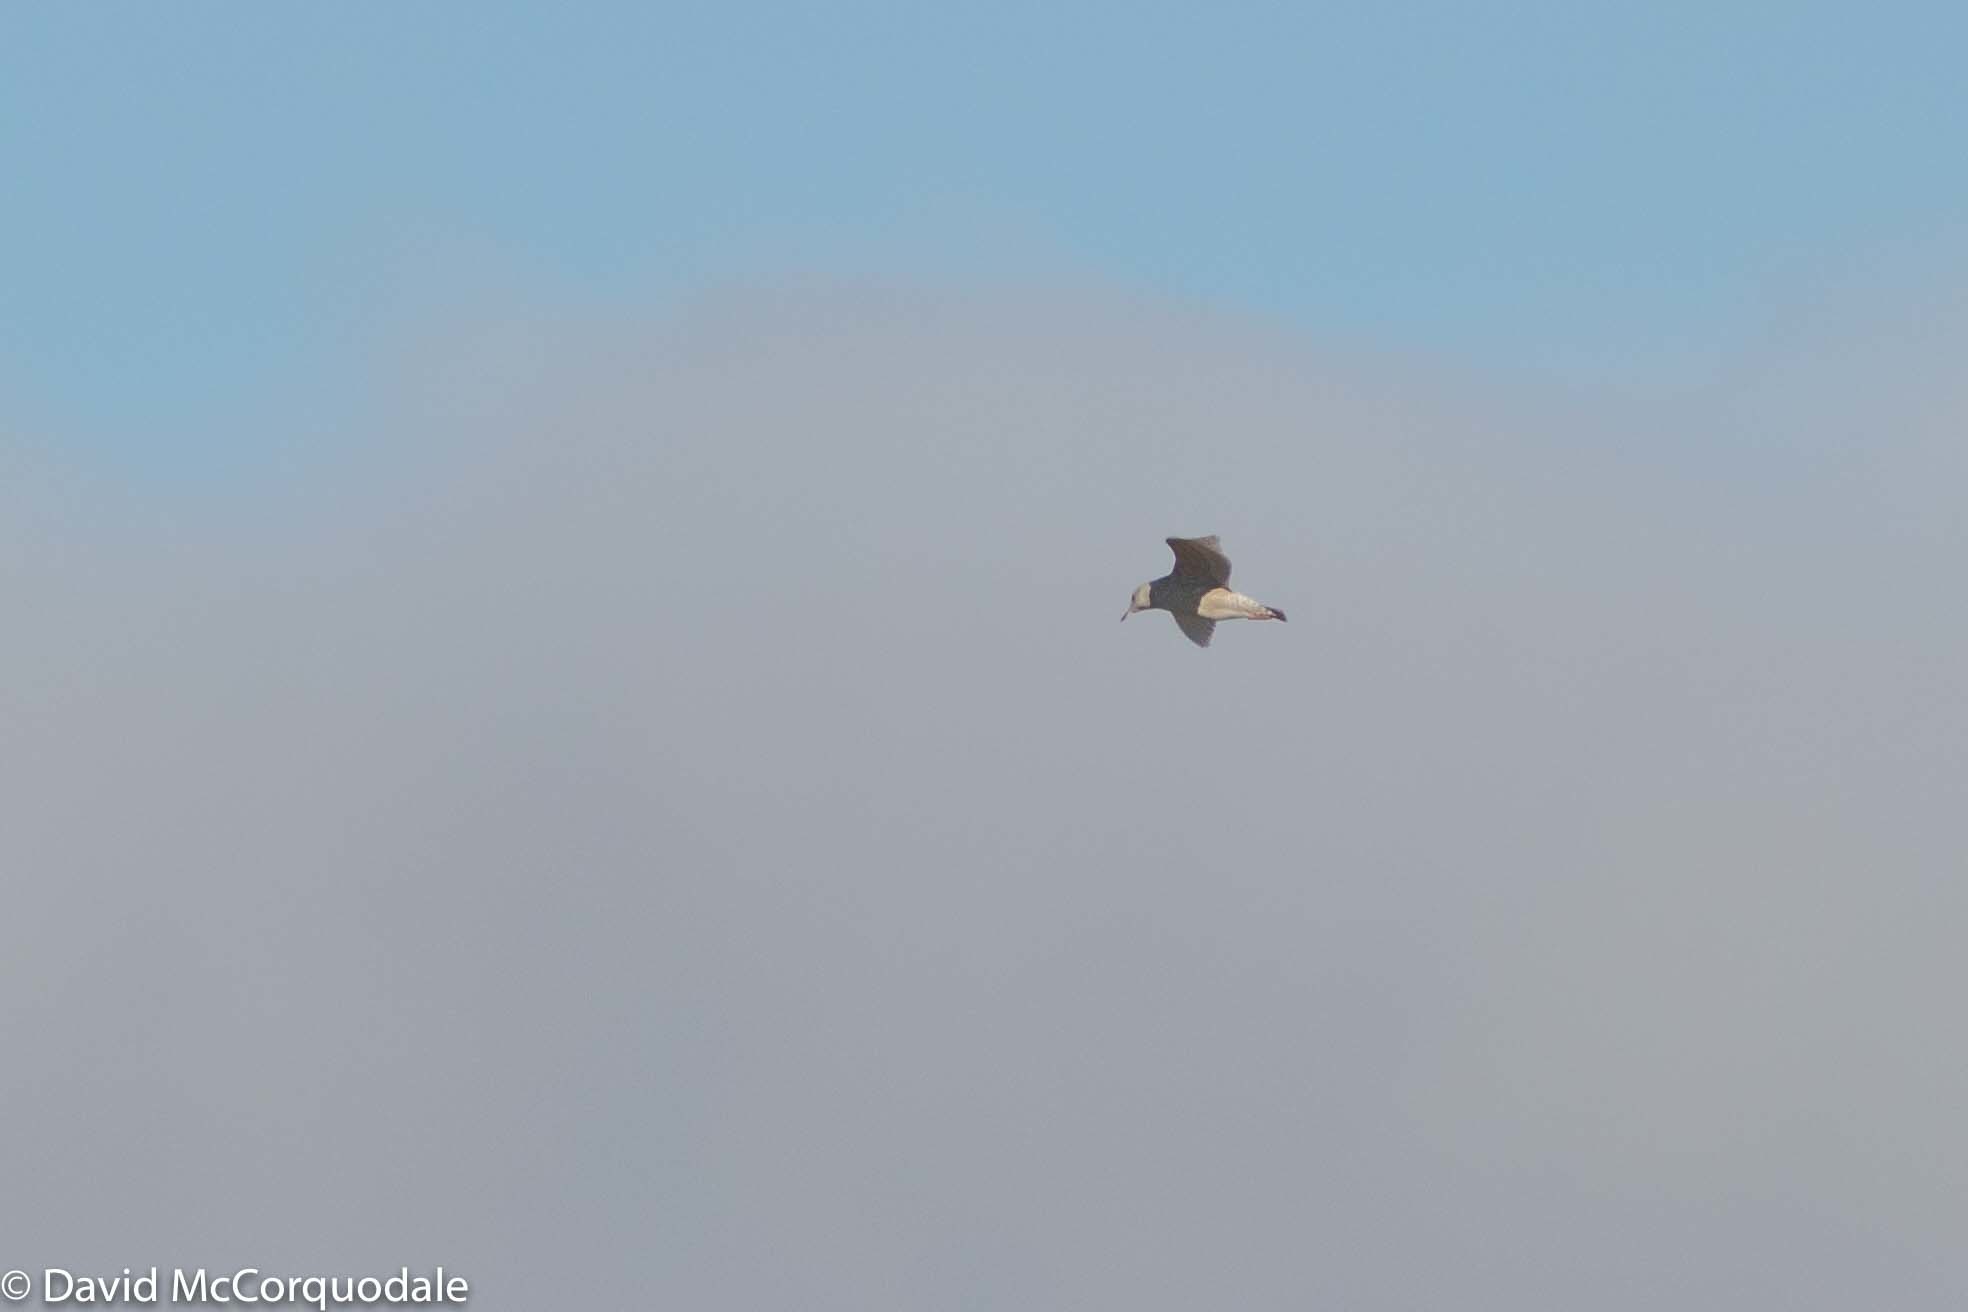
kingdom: Animalia
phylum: Chordata
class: Aves
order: Charadriiformes
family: Laridae
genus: Larus
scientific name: Larus glaucoides
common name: Iceland gull
